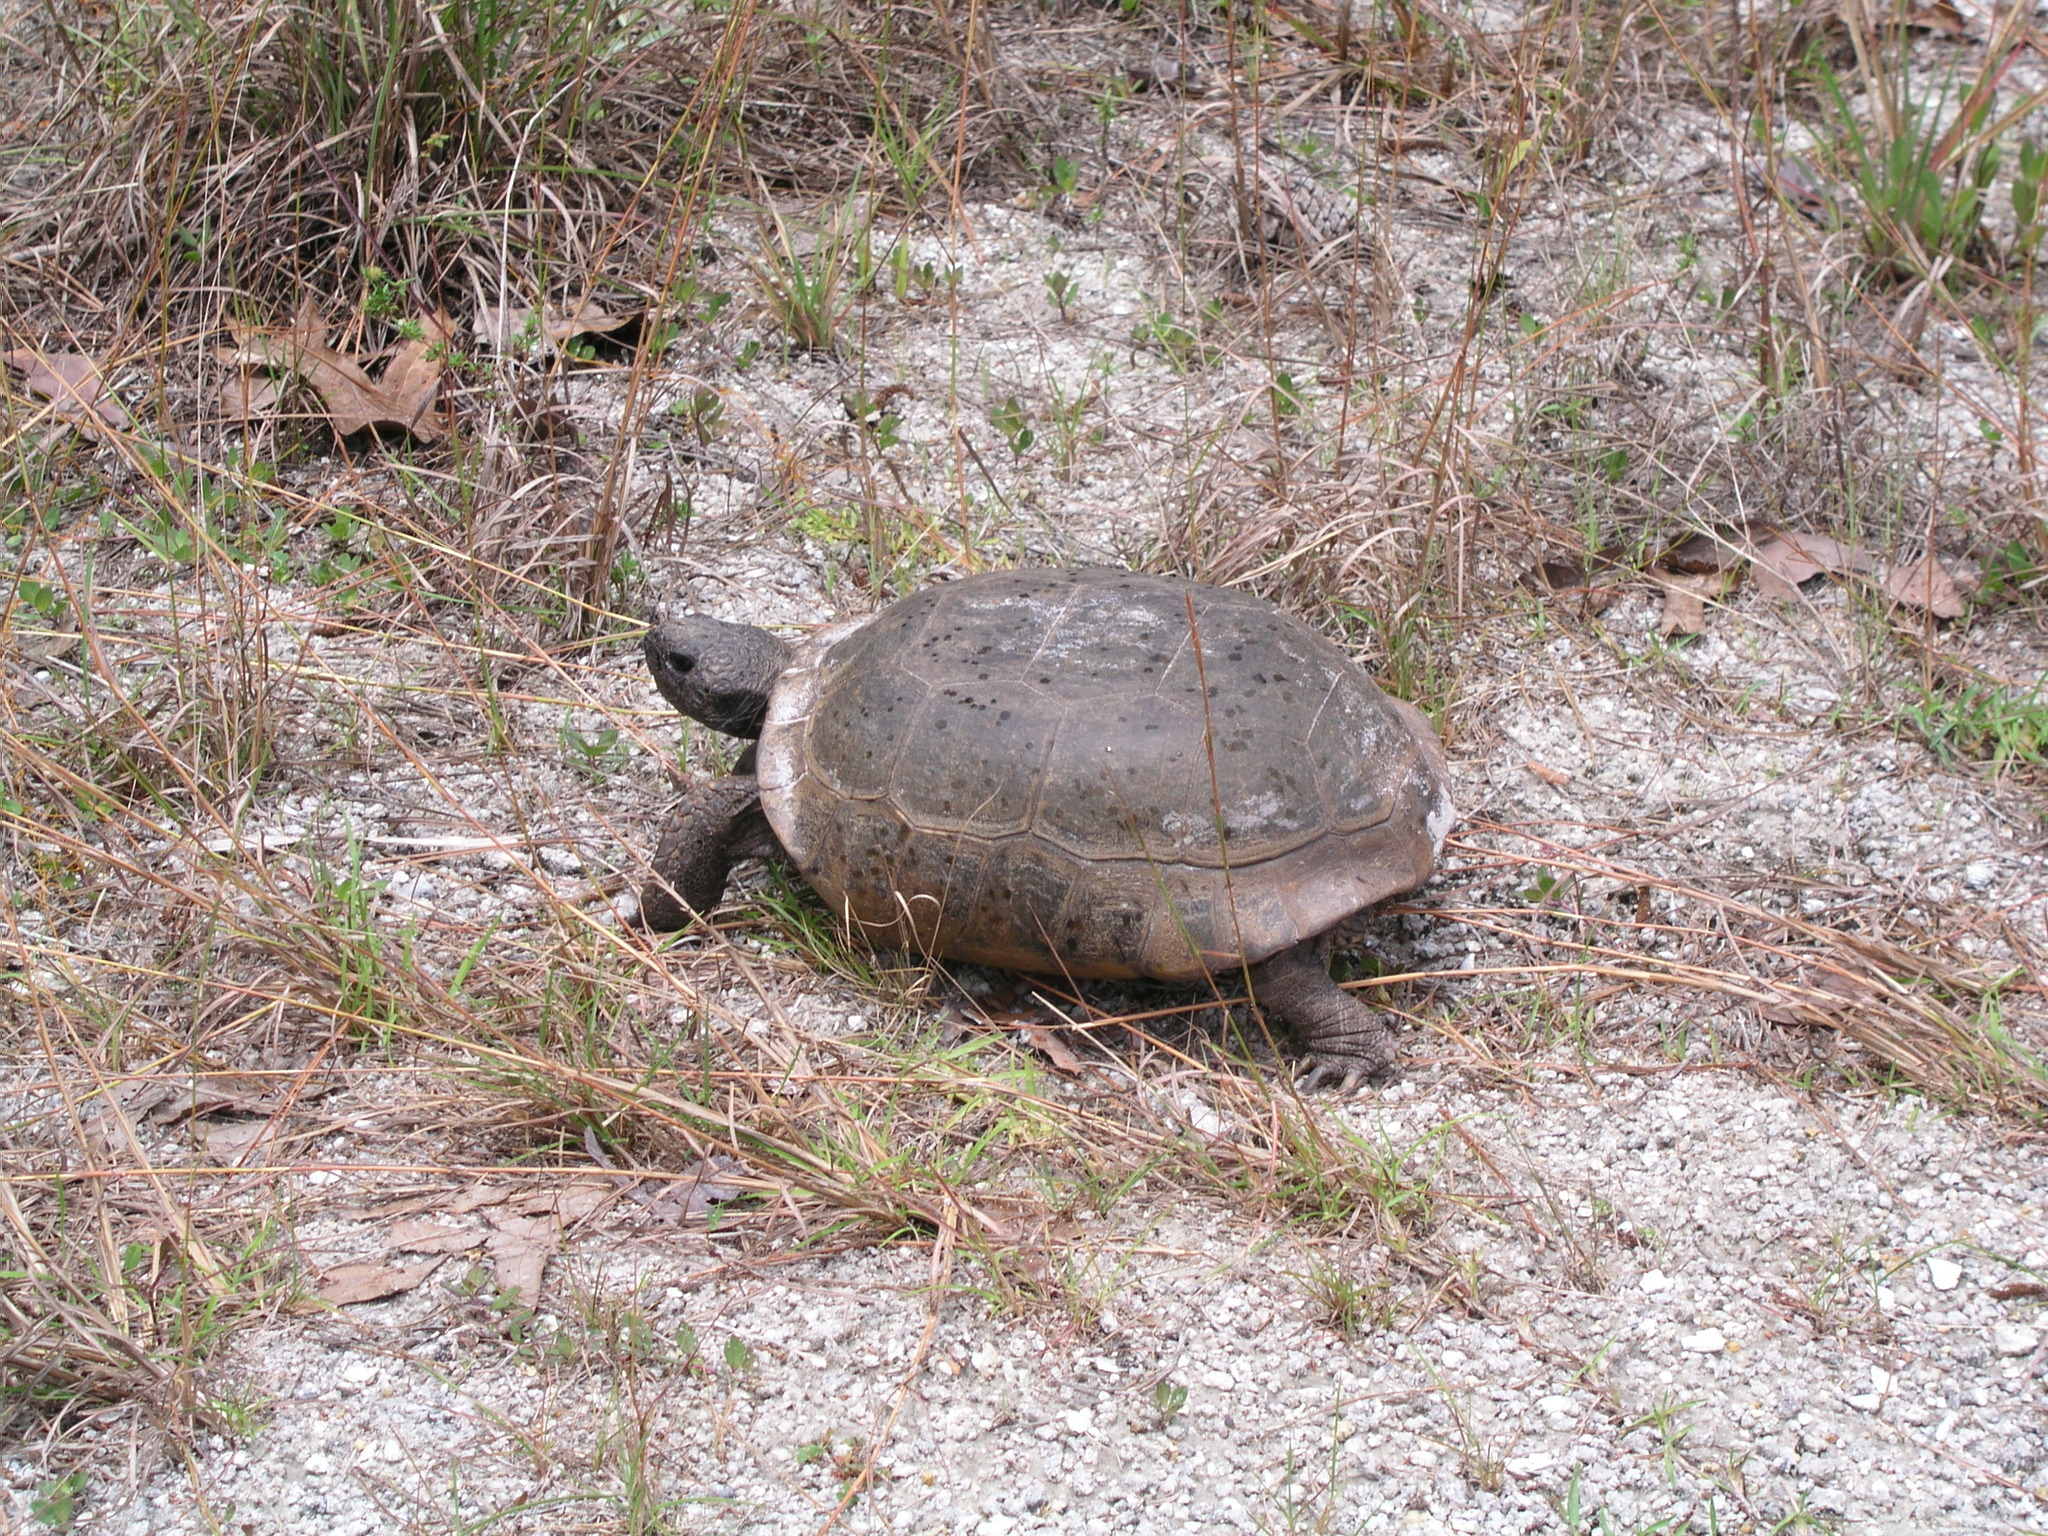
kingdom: Animalia
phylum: Chordata
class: Testudines
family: Testudinidae
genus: Gopherus
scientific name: Gopherus polyphemus
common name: Florida gopher tortoise
